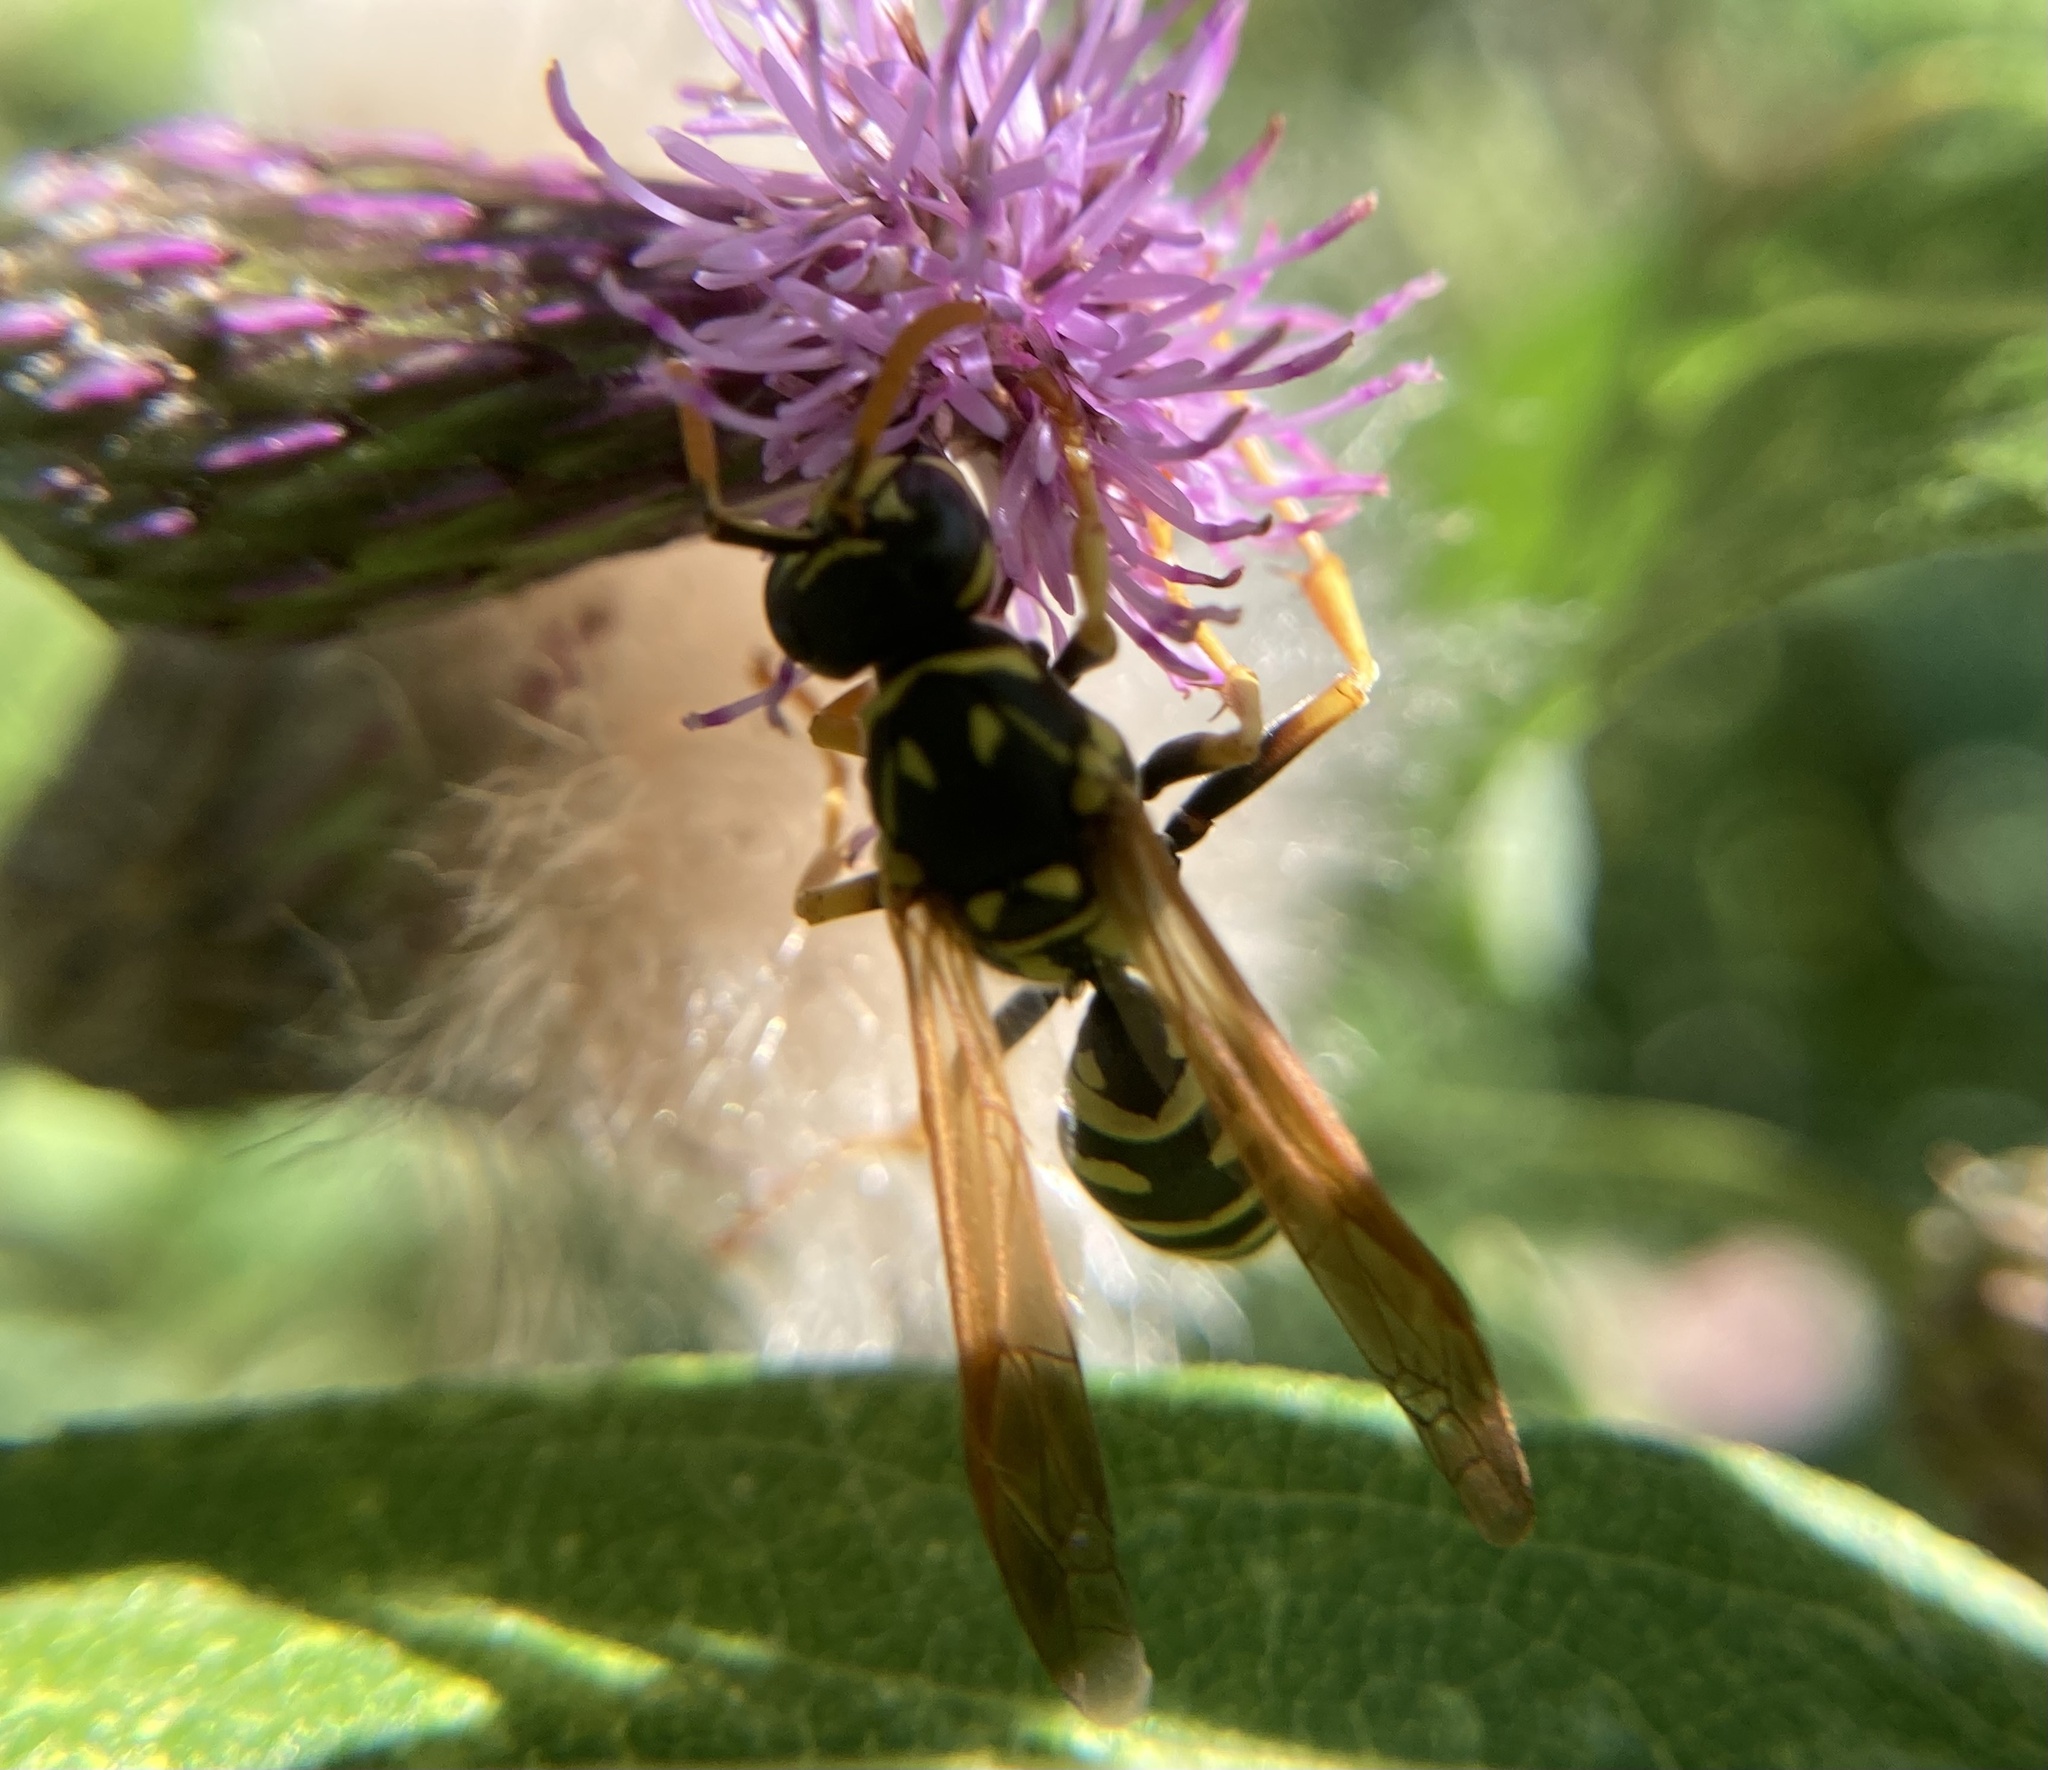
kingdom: Animalia
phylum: Arthropoda
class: Insecta
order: Hymenoptera
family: Eumenidae
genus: Polistes
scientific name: Polistes dominula
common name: Paper wasp
